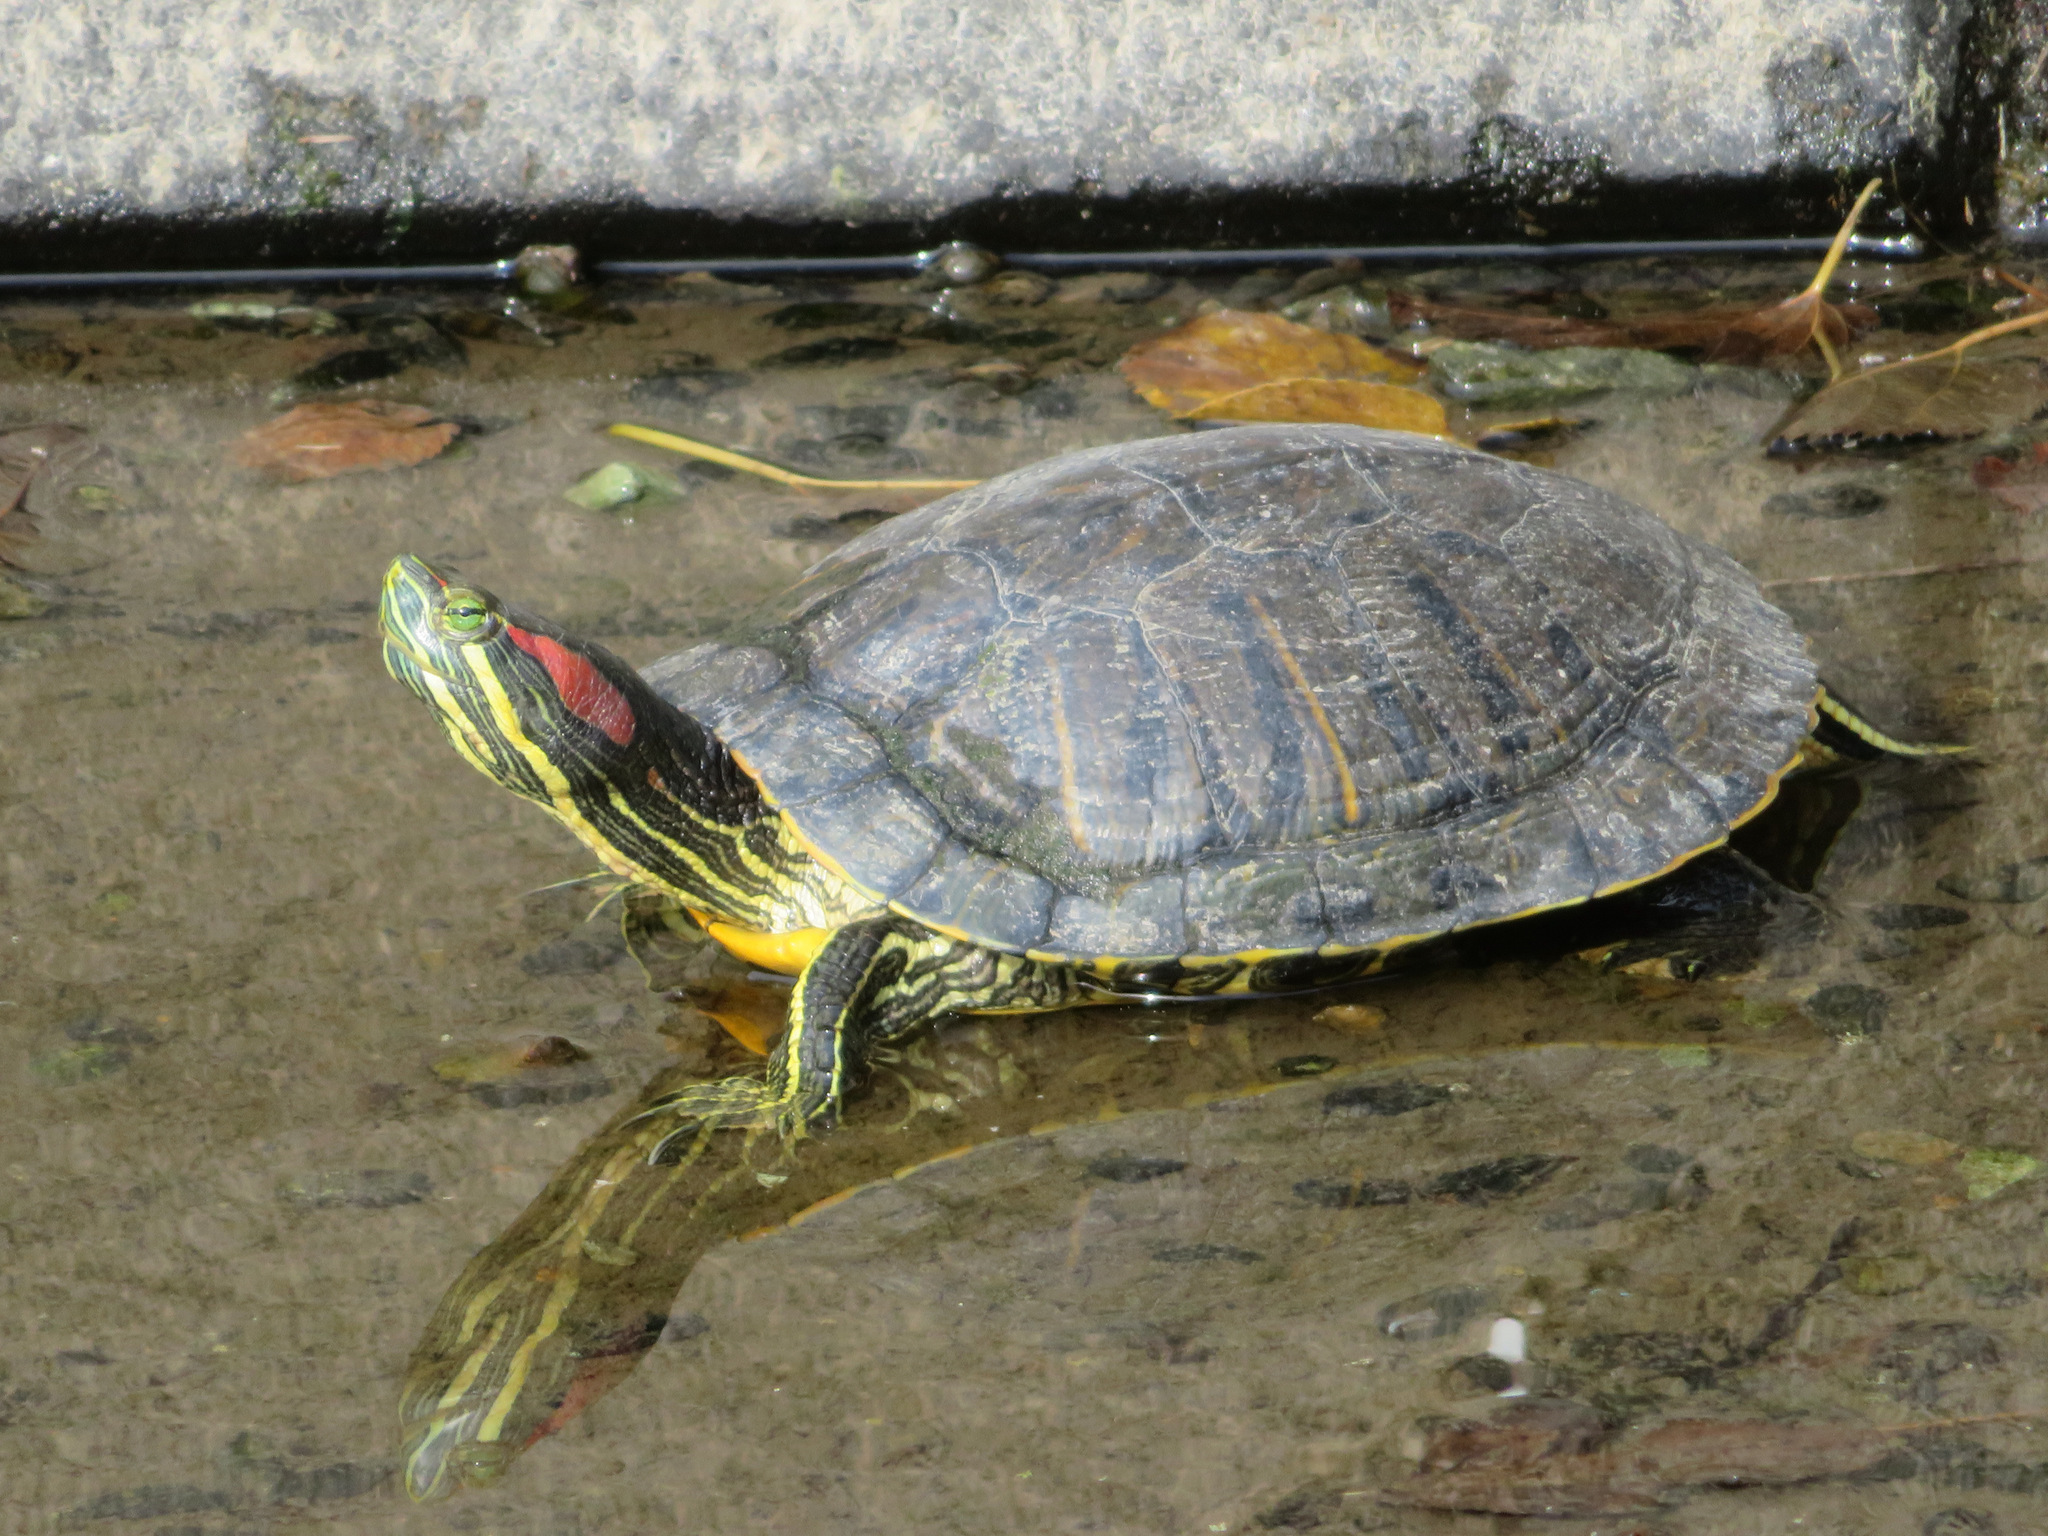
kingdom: Animalia
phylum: Chordata
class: Testudines
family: Emydidae
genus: Trachemys
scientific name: Trachemys scripta
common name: Slider
